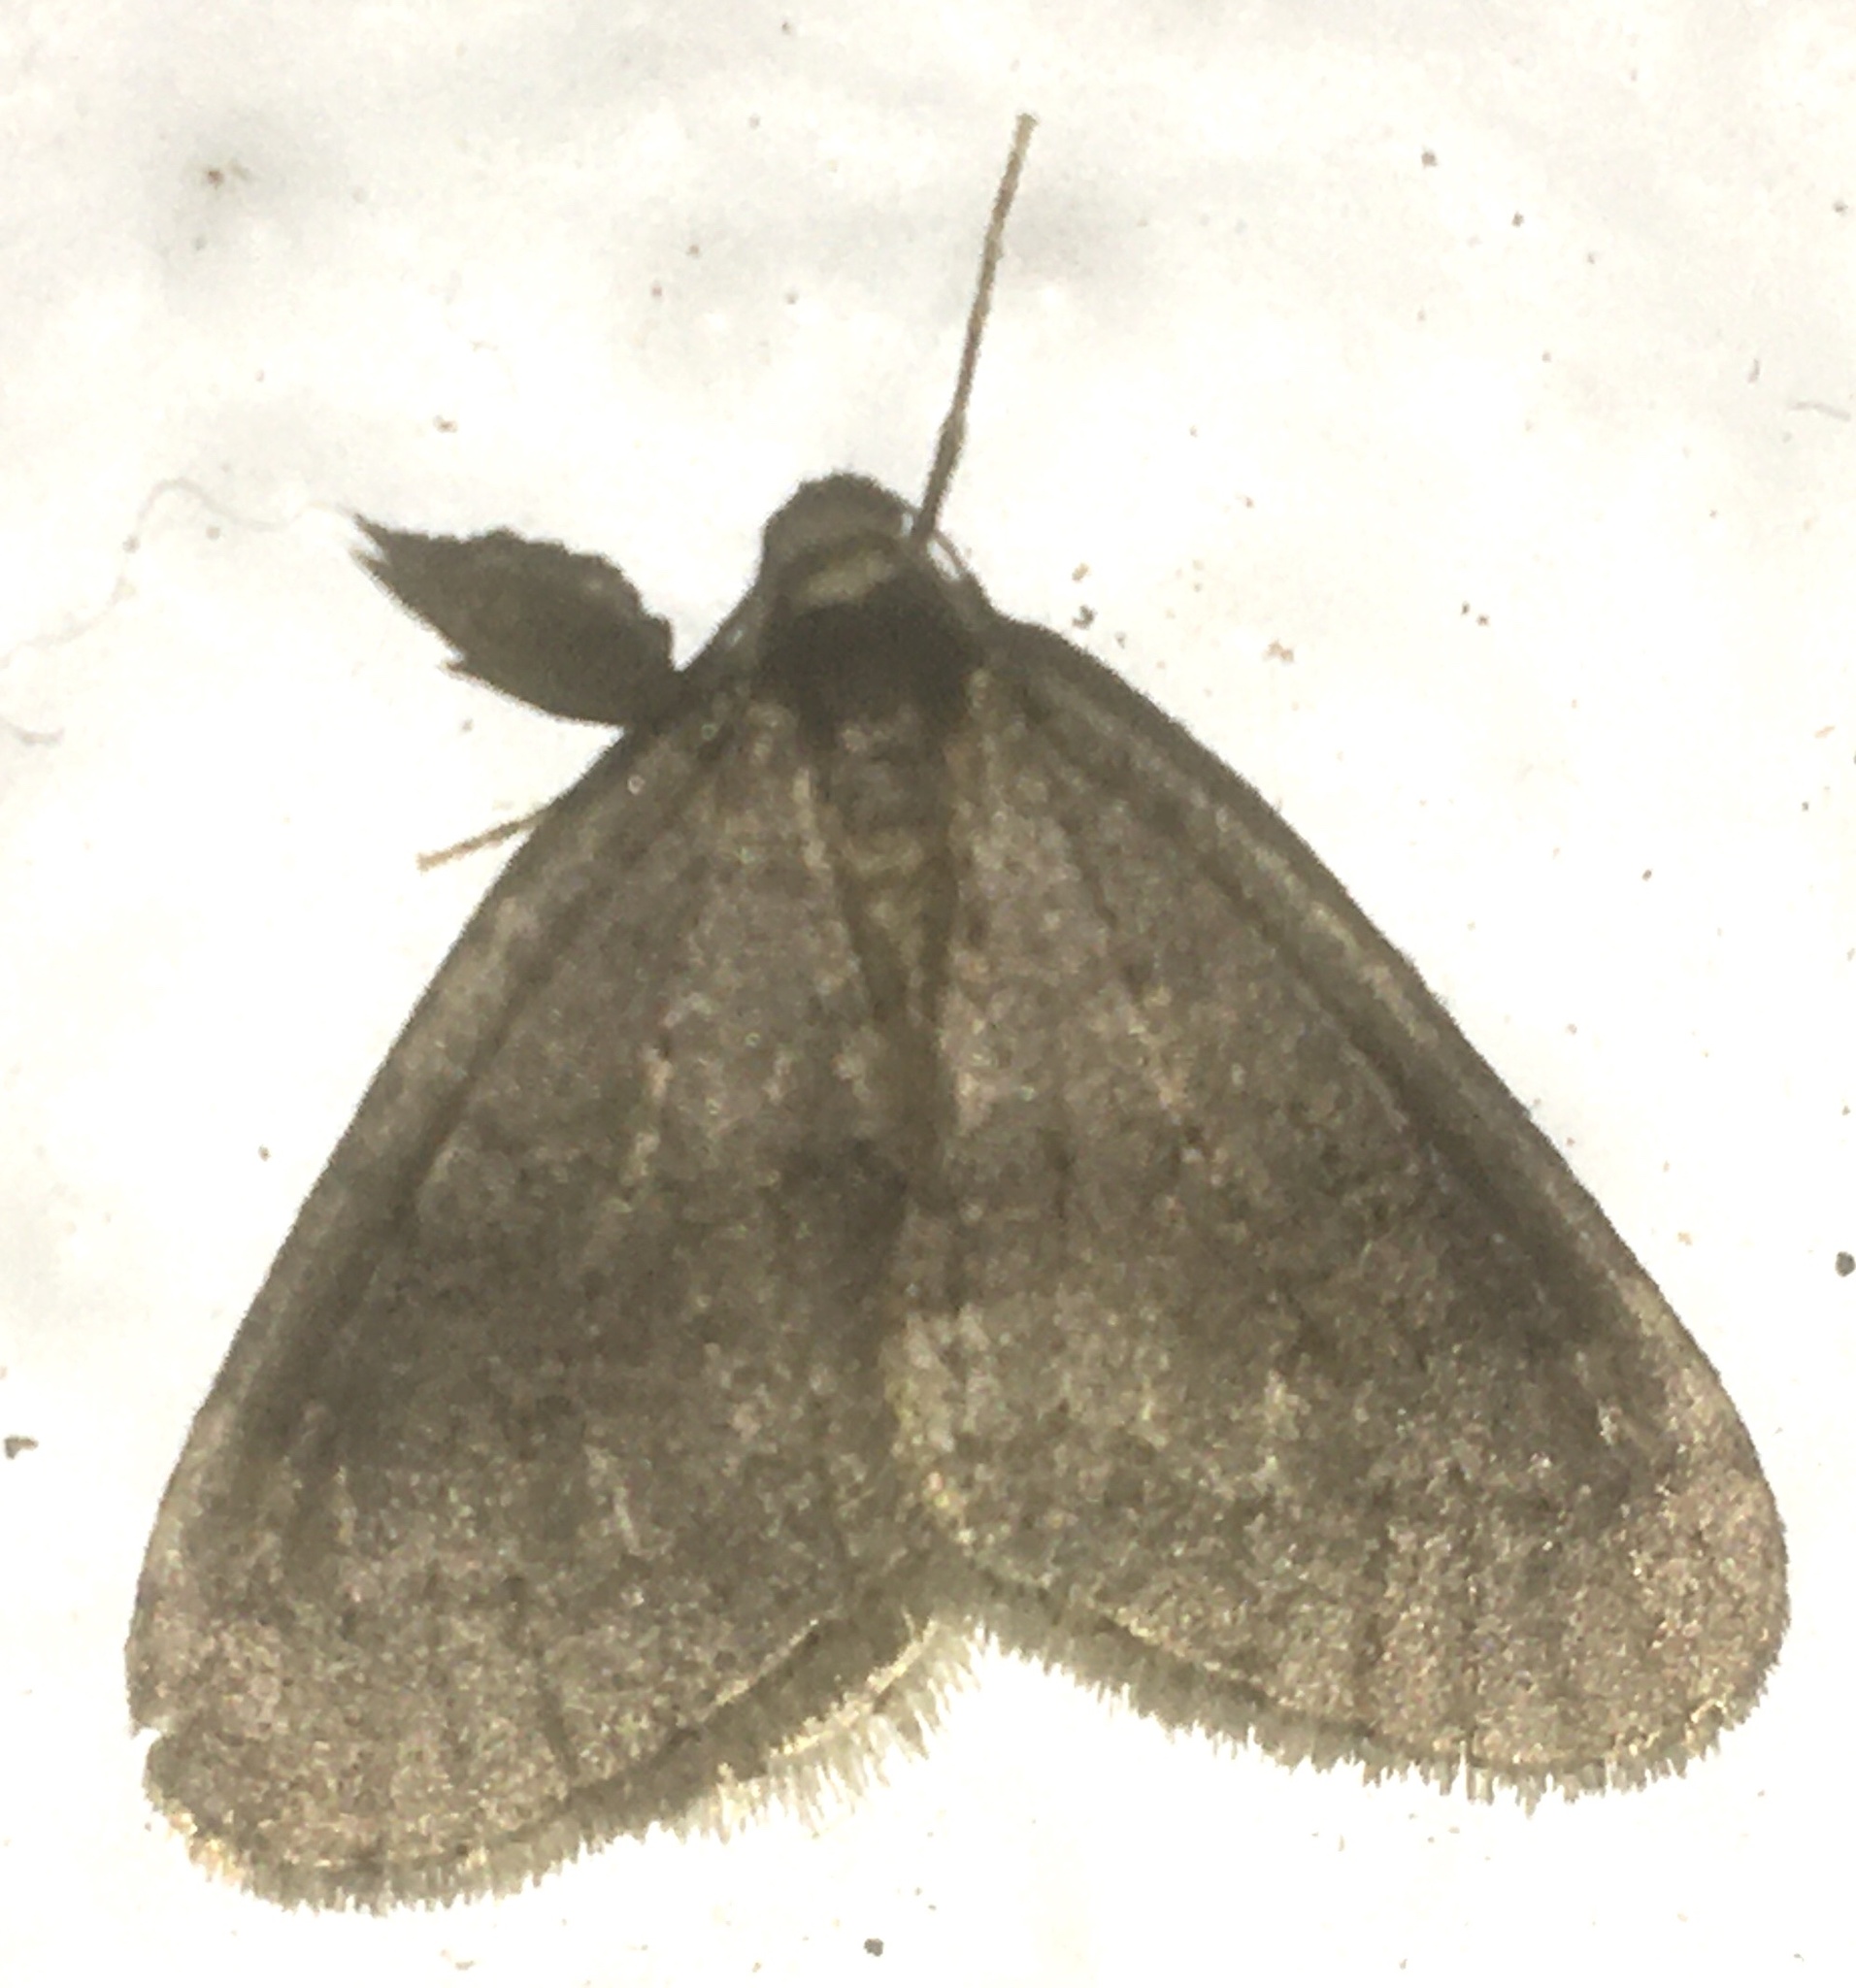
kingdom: Animalia
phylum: Arthropoda
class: Insecta
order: Lepidoptera
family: Geometridae
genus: Operophtera
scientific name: Operophtera brumata
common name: Winter moth
